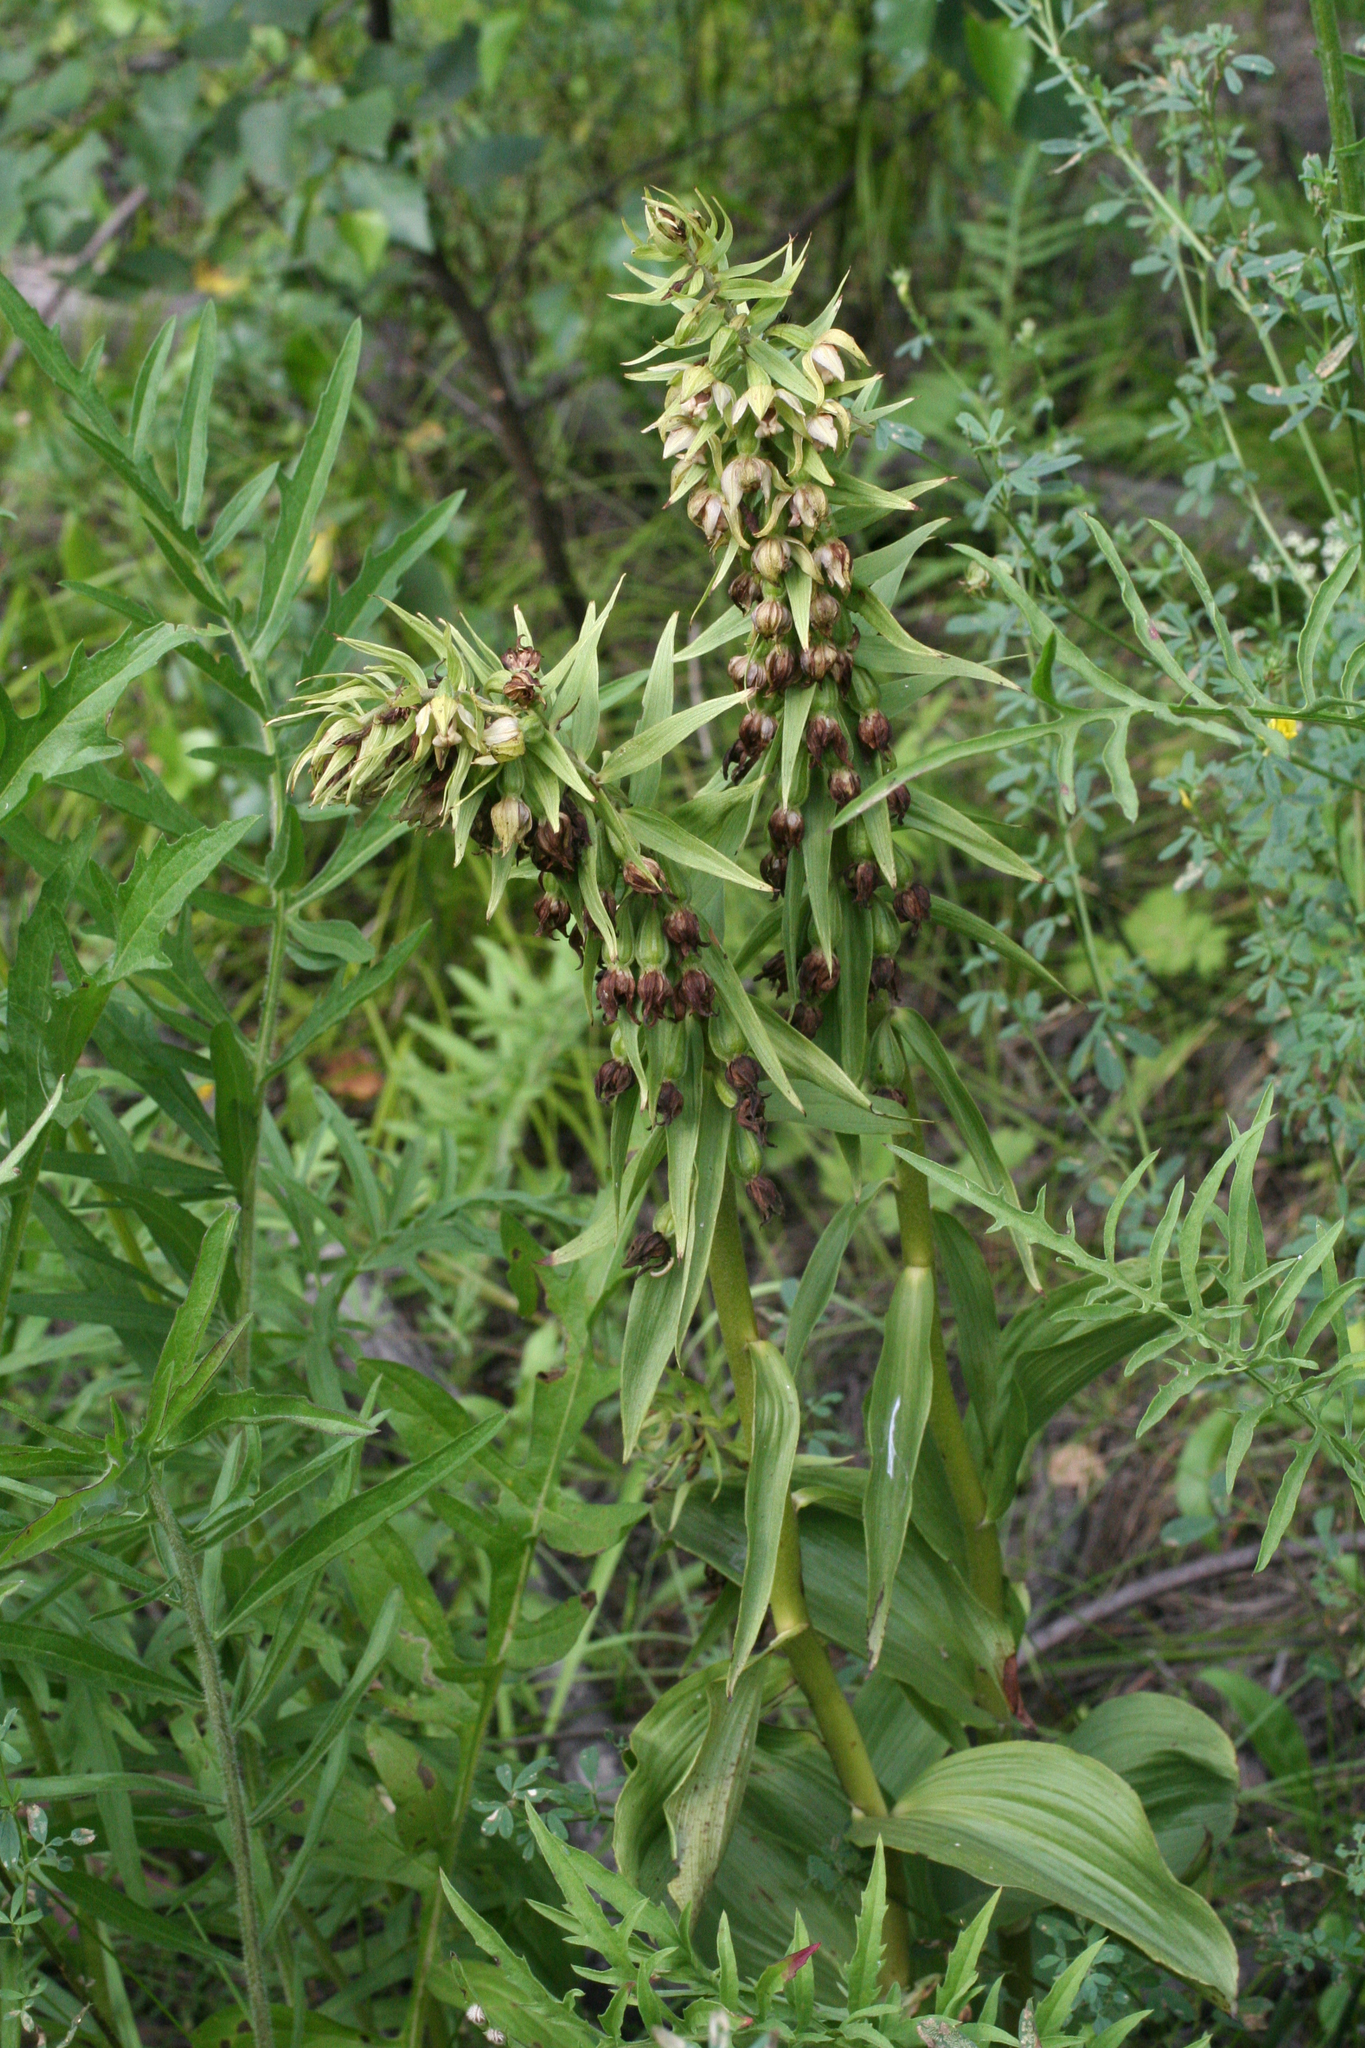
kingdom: Plantae
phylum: Tracheophyta
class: Liliopsida
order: Asparagales
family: Orchidaceae
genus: Epipactis
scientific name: Epipactis helleborine
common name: Broad-leaved helleborine
